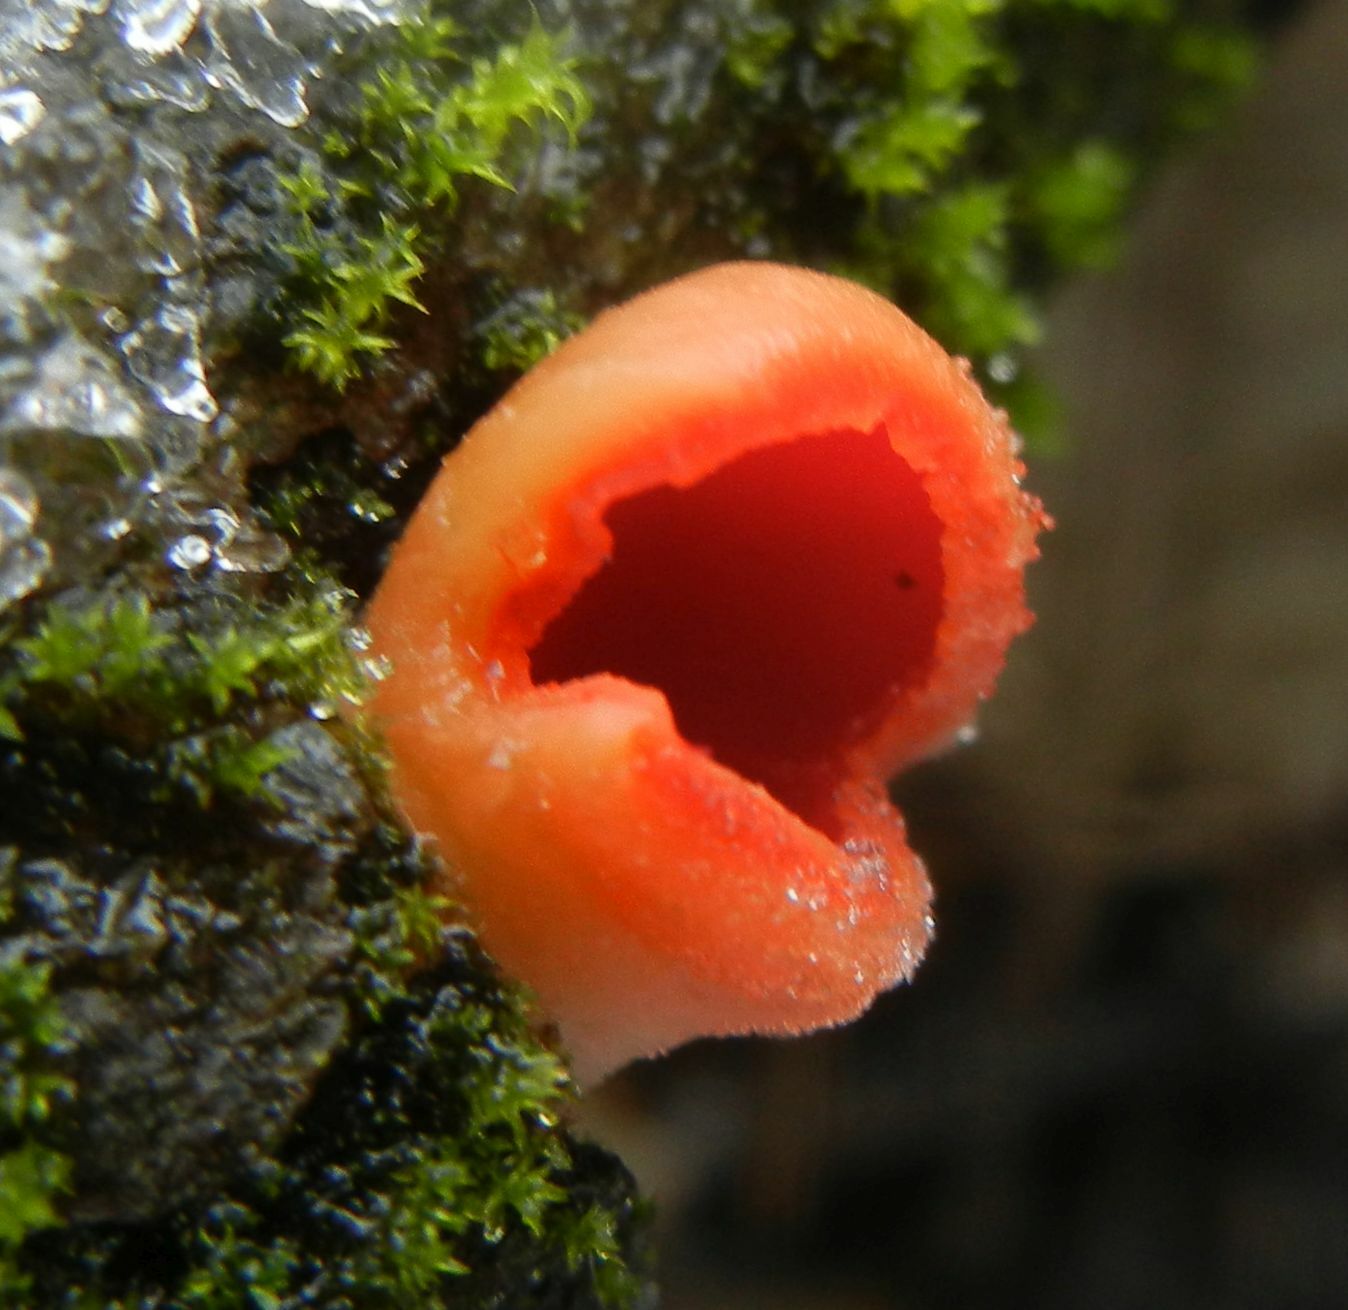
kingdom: Fungi
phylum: Ascomycota
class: Pezizomycetes
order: Pezizales
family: Sarcoscyphaceae
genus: Sarcoscypha
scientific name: Sarcoscypha
